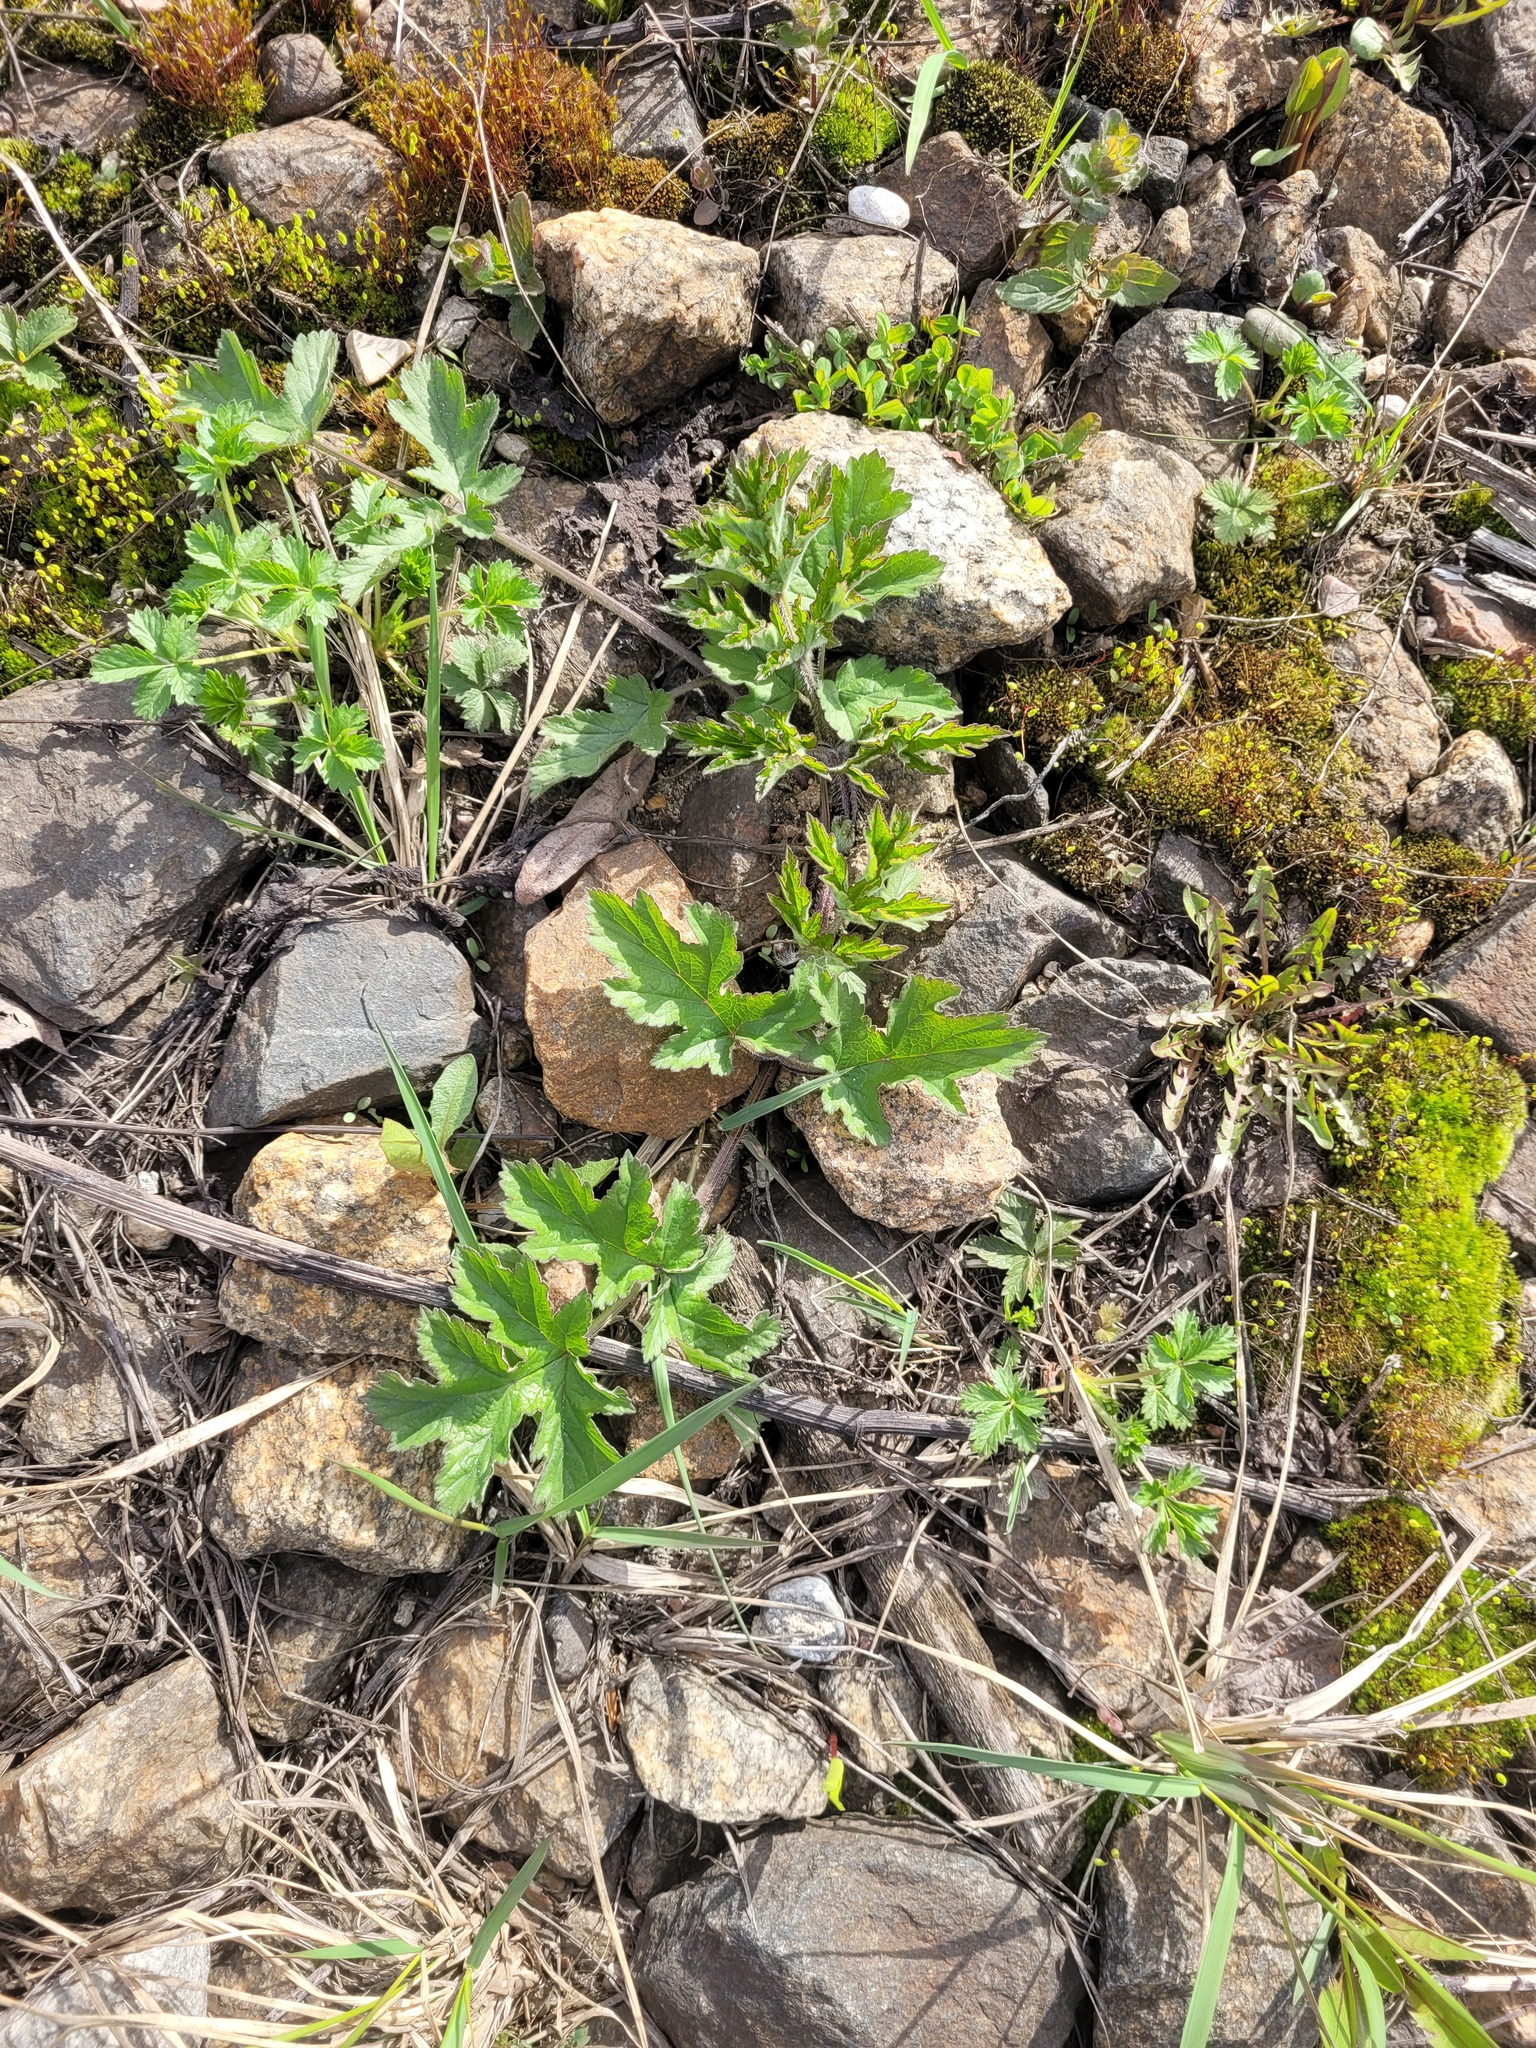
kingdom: Plantae
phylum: Tracheophyta
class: Magnoliopsida
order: Apiales
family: Apiaceae
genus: Heracleum
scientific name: Heracleum sphondylium
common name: Hogweed
